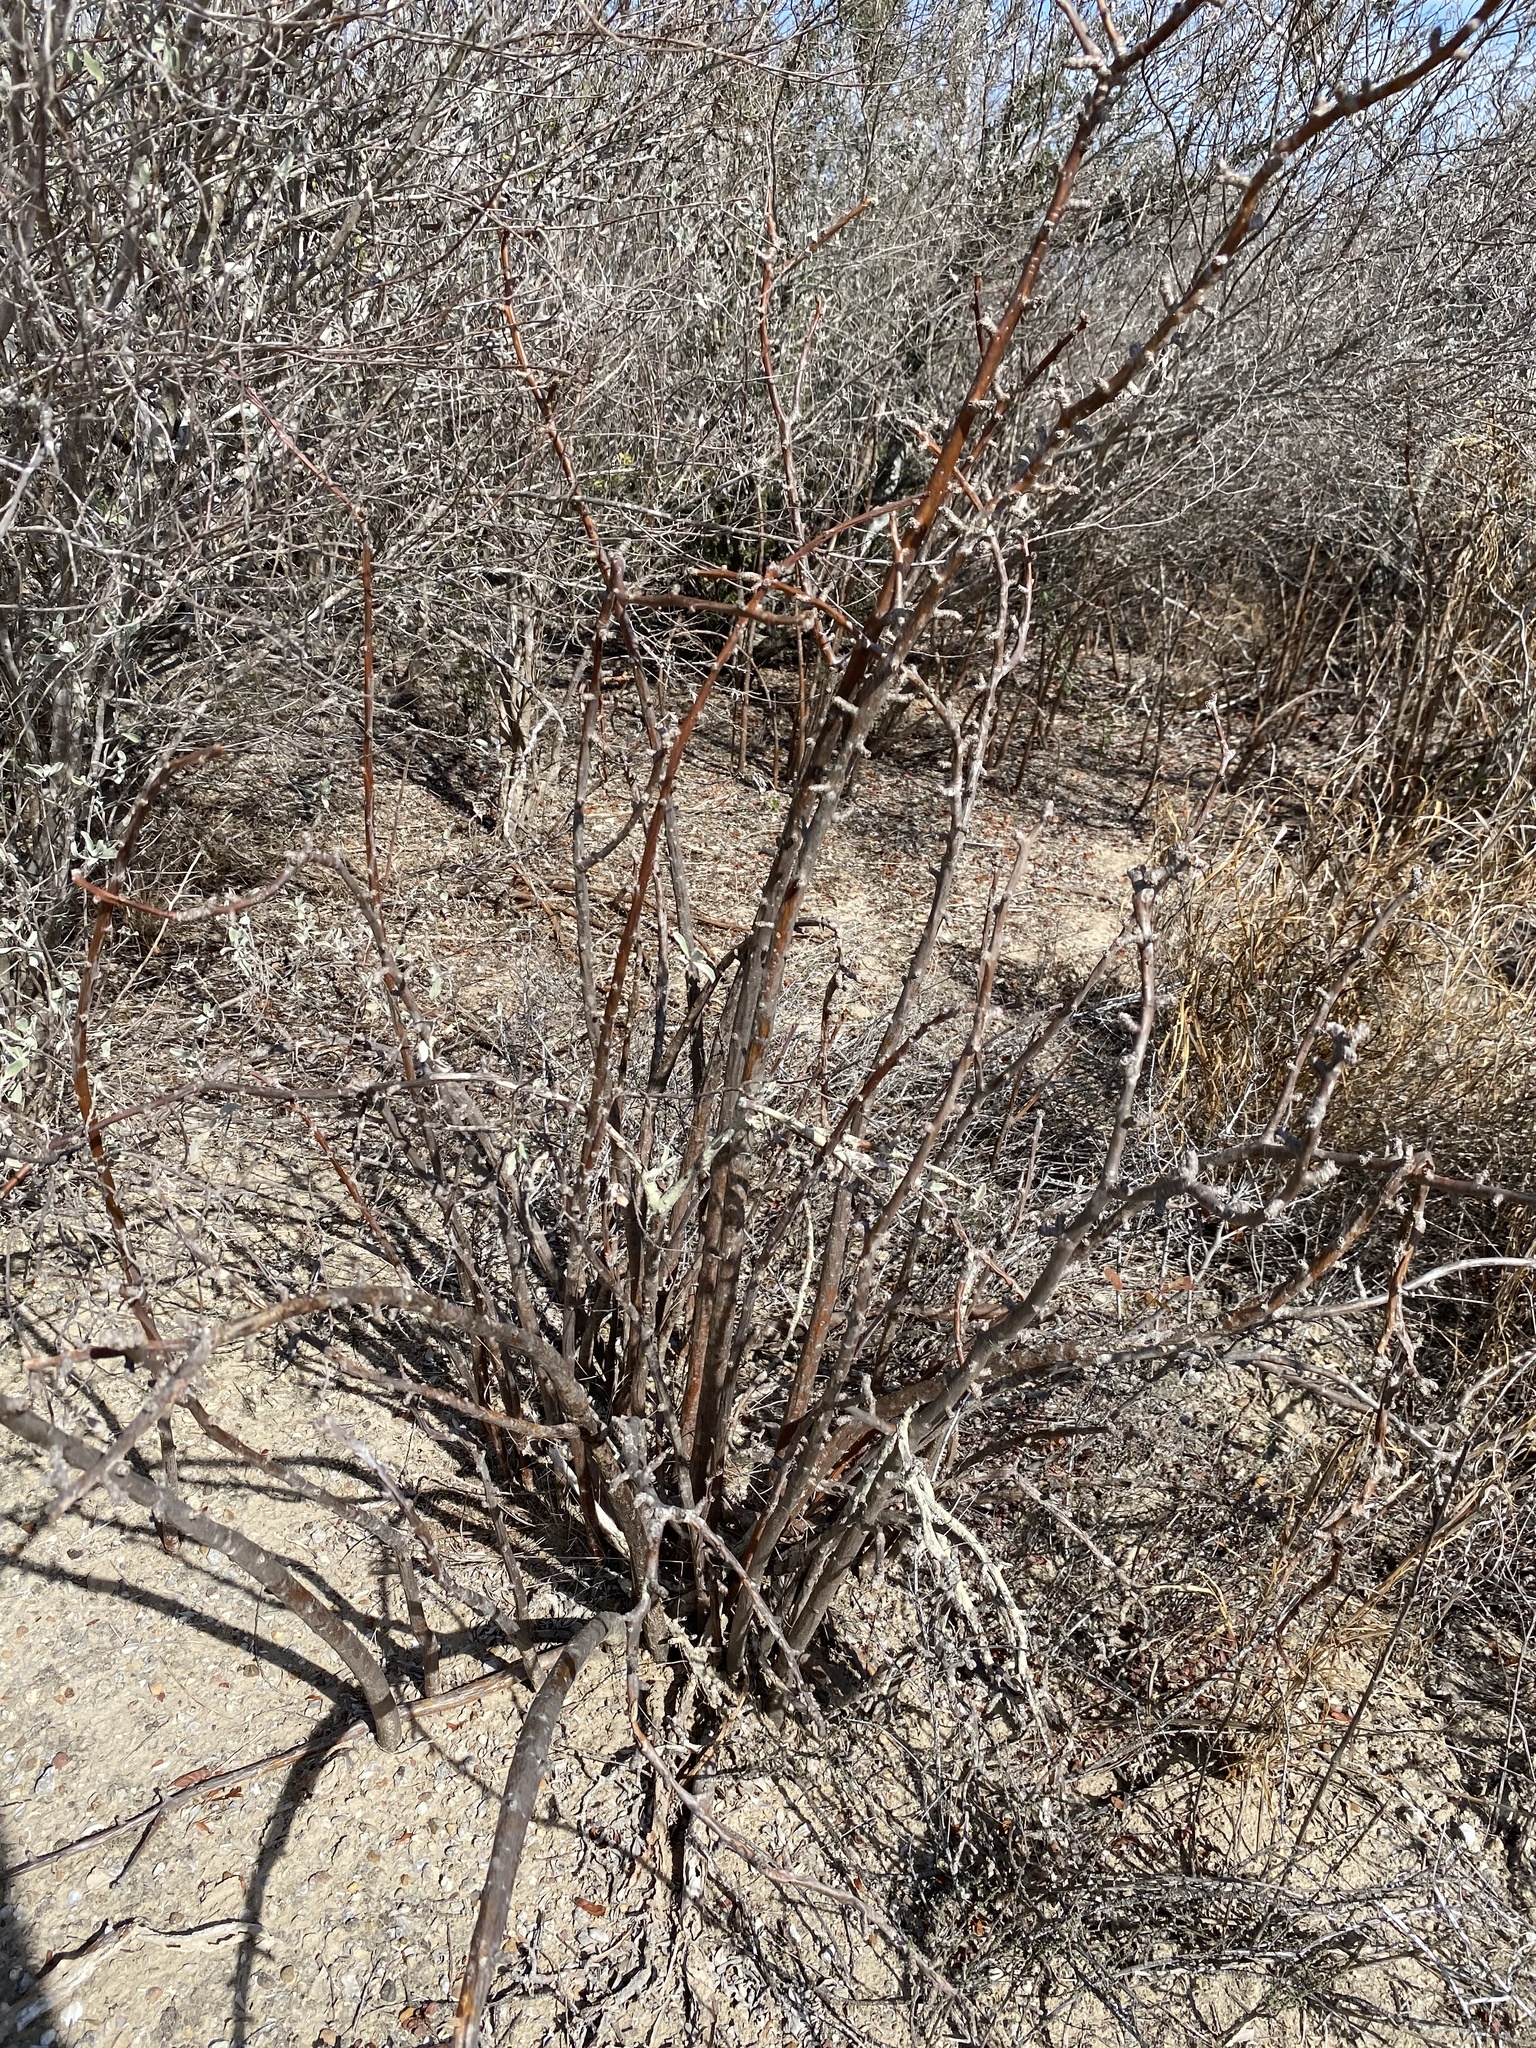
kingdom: Plantae
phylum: Tracheophyta
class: Magnoliopsida
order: Malpighiales
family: Euphorbiaceae
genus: Jatropha
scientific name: Jatropha dioica
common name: Leatherstem
